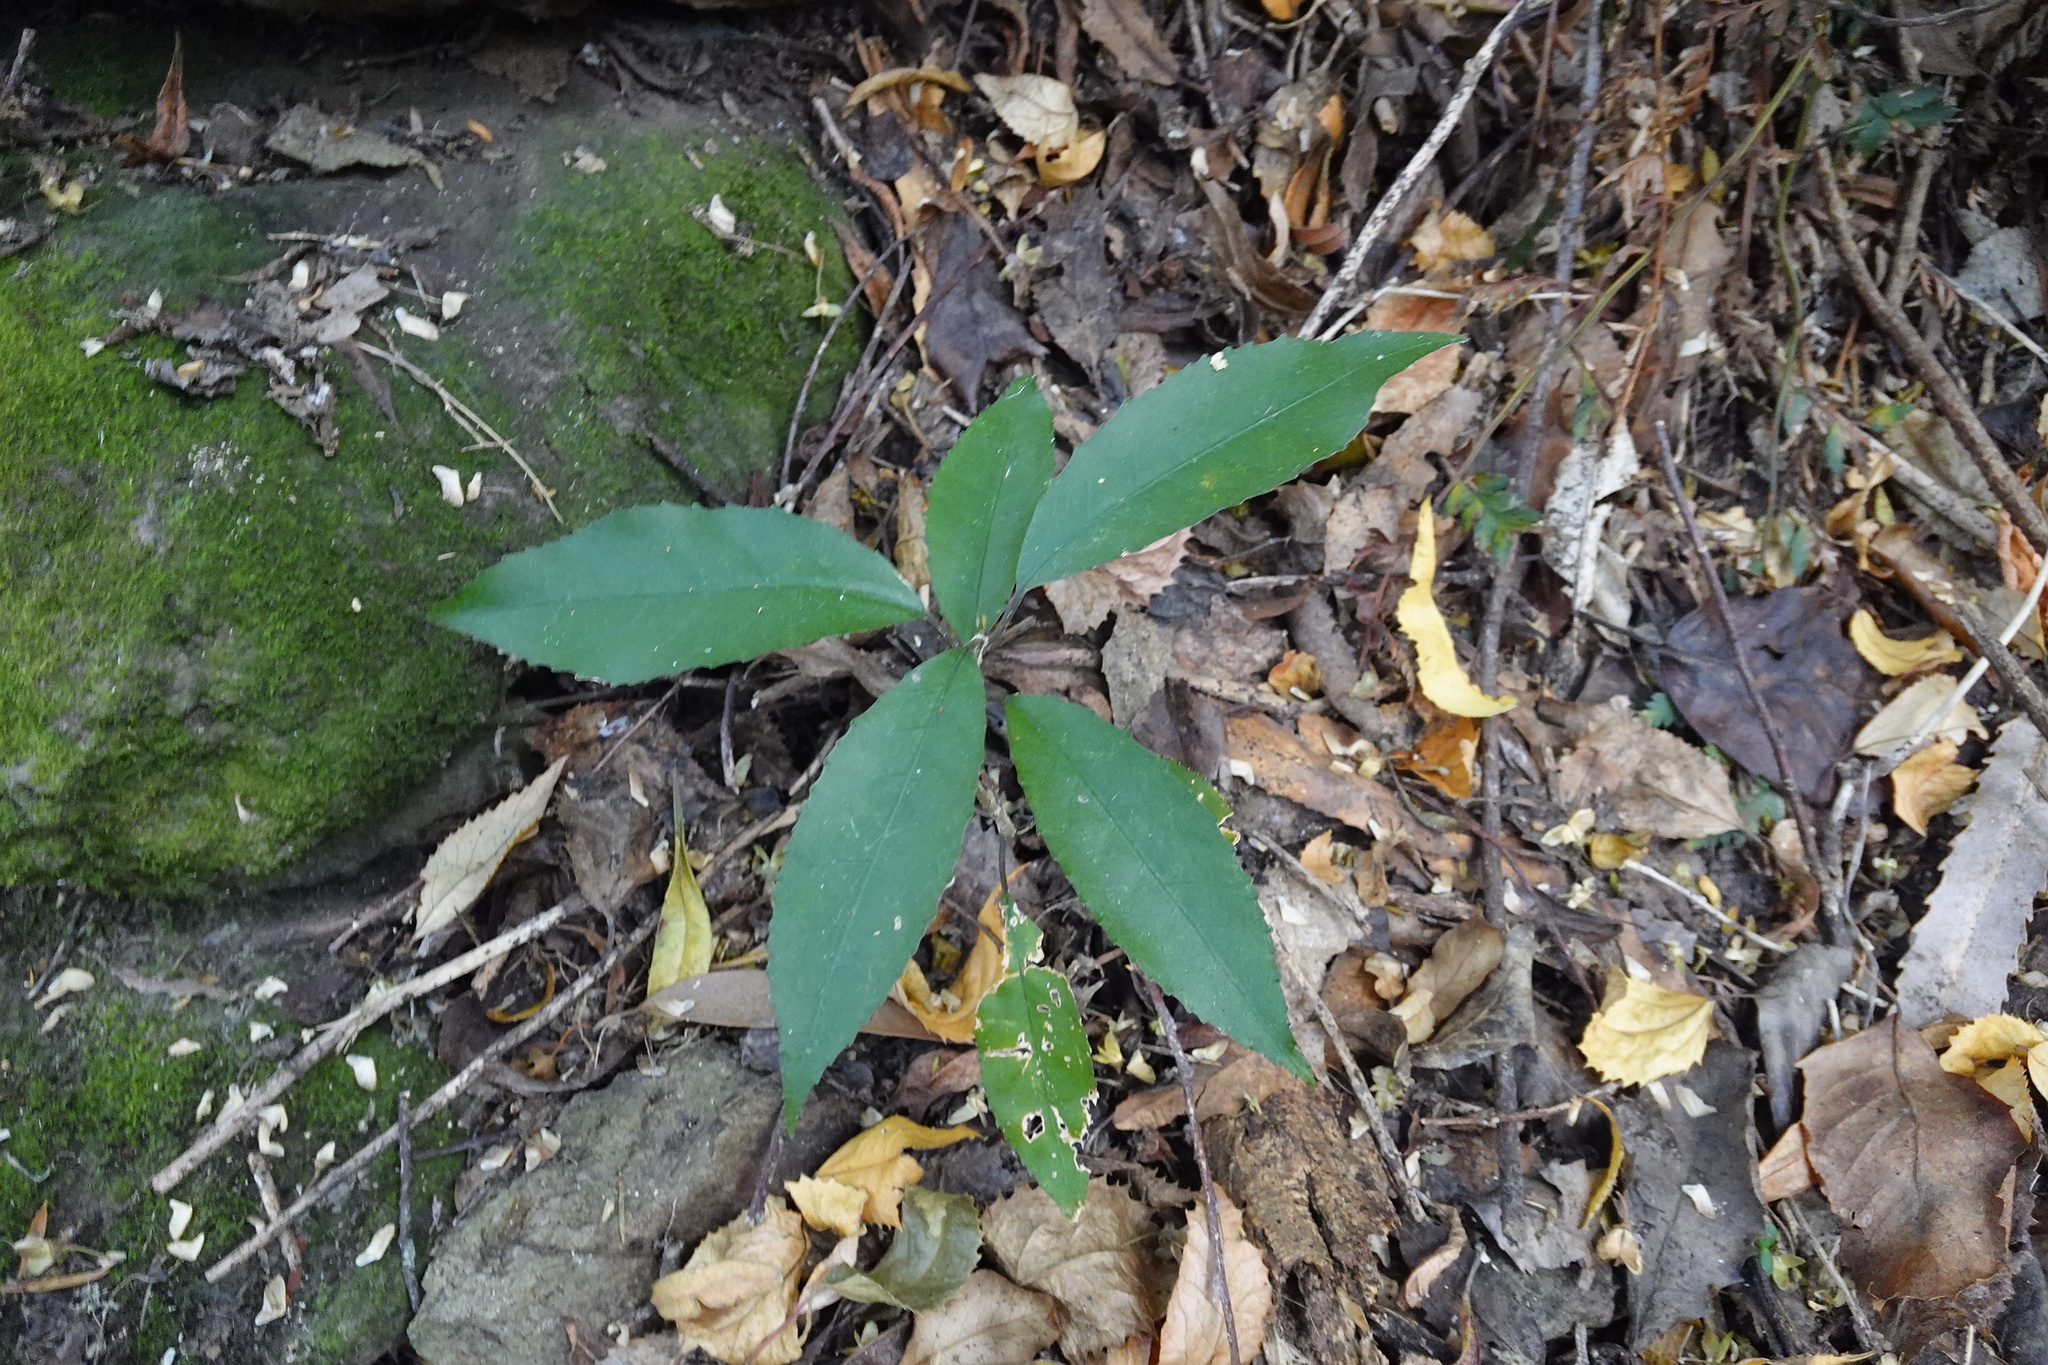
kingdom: Plantae
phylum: Tracheophyta
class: Magnoliopsida
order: Malpighiales
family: Violaceae
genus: Melicytus
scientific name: Melicytus ramiflorus
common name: Mahoe
